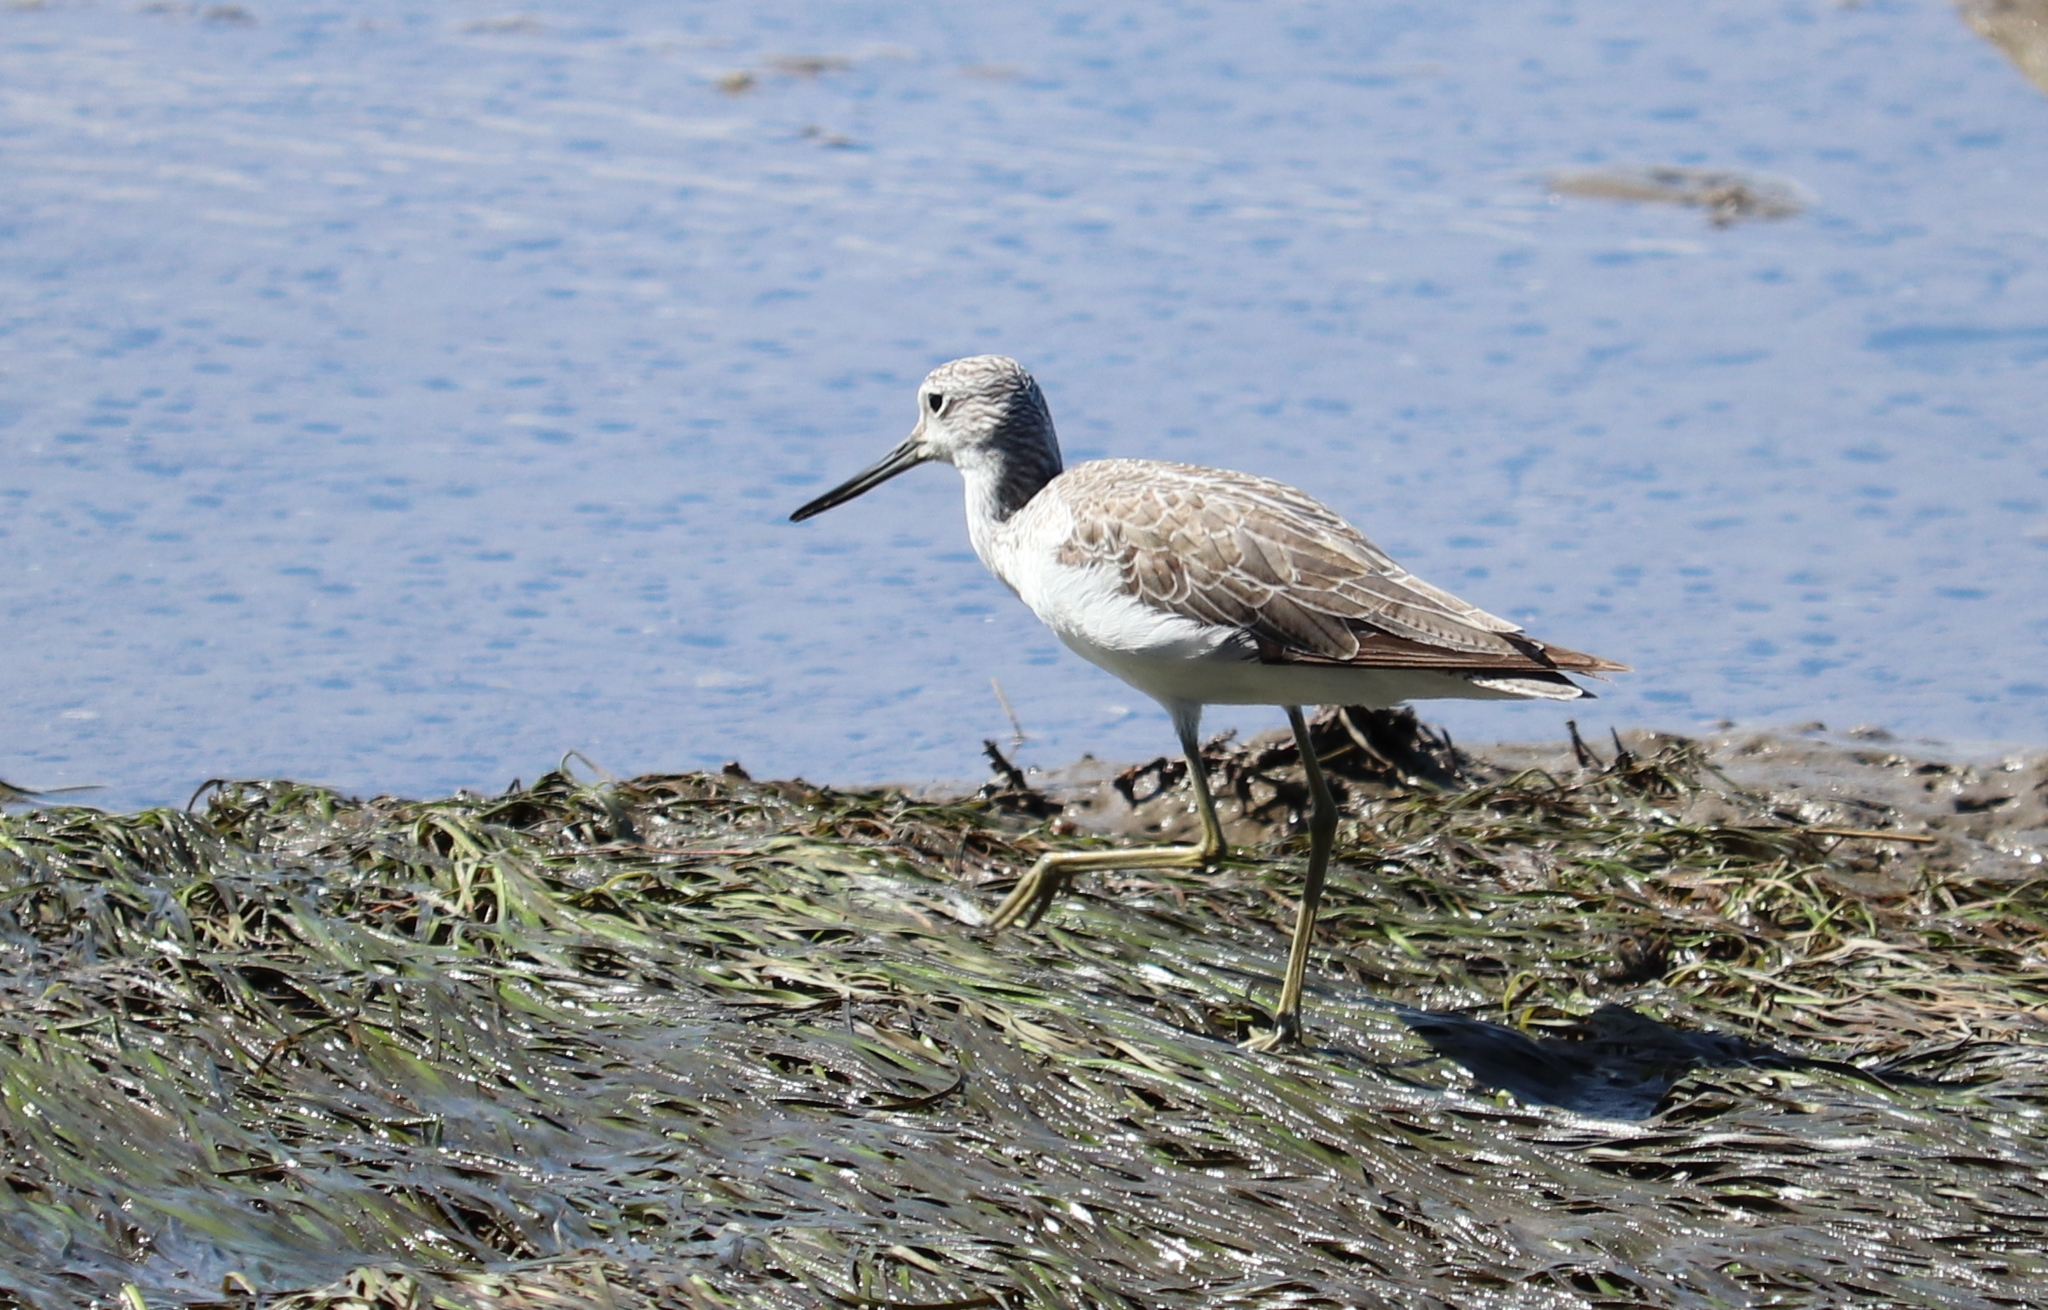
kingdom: Animalia
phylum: Chordata
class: Aves
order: Charadriiformes
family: Scolopacidae
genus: Tringa
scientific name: Tringa nebularia
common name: Common greenshank
